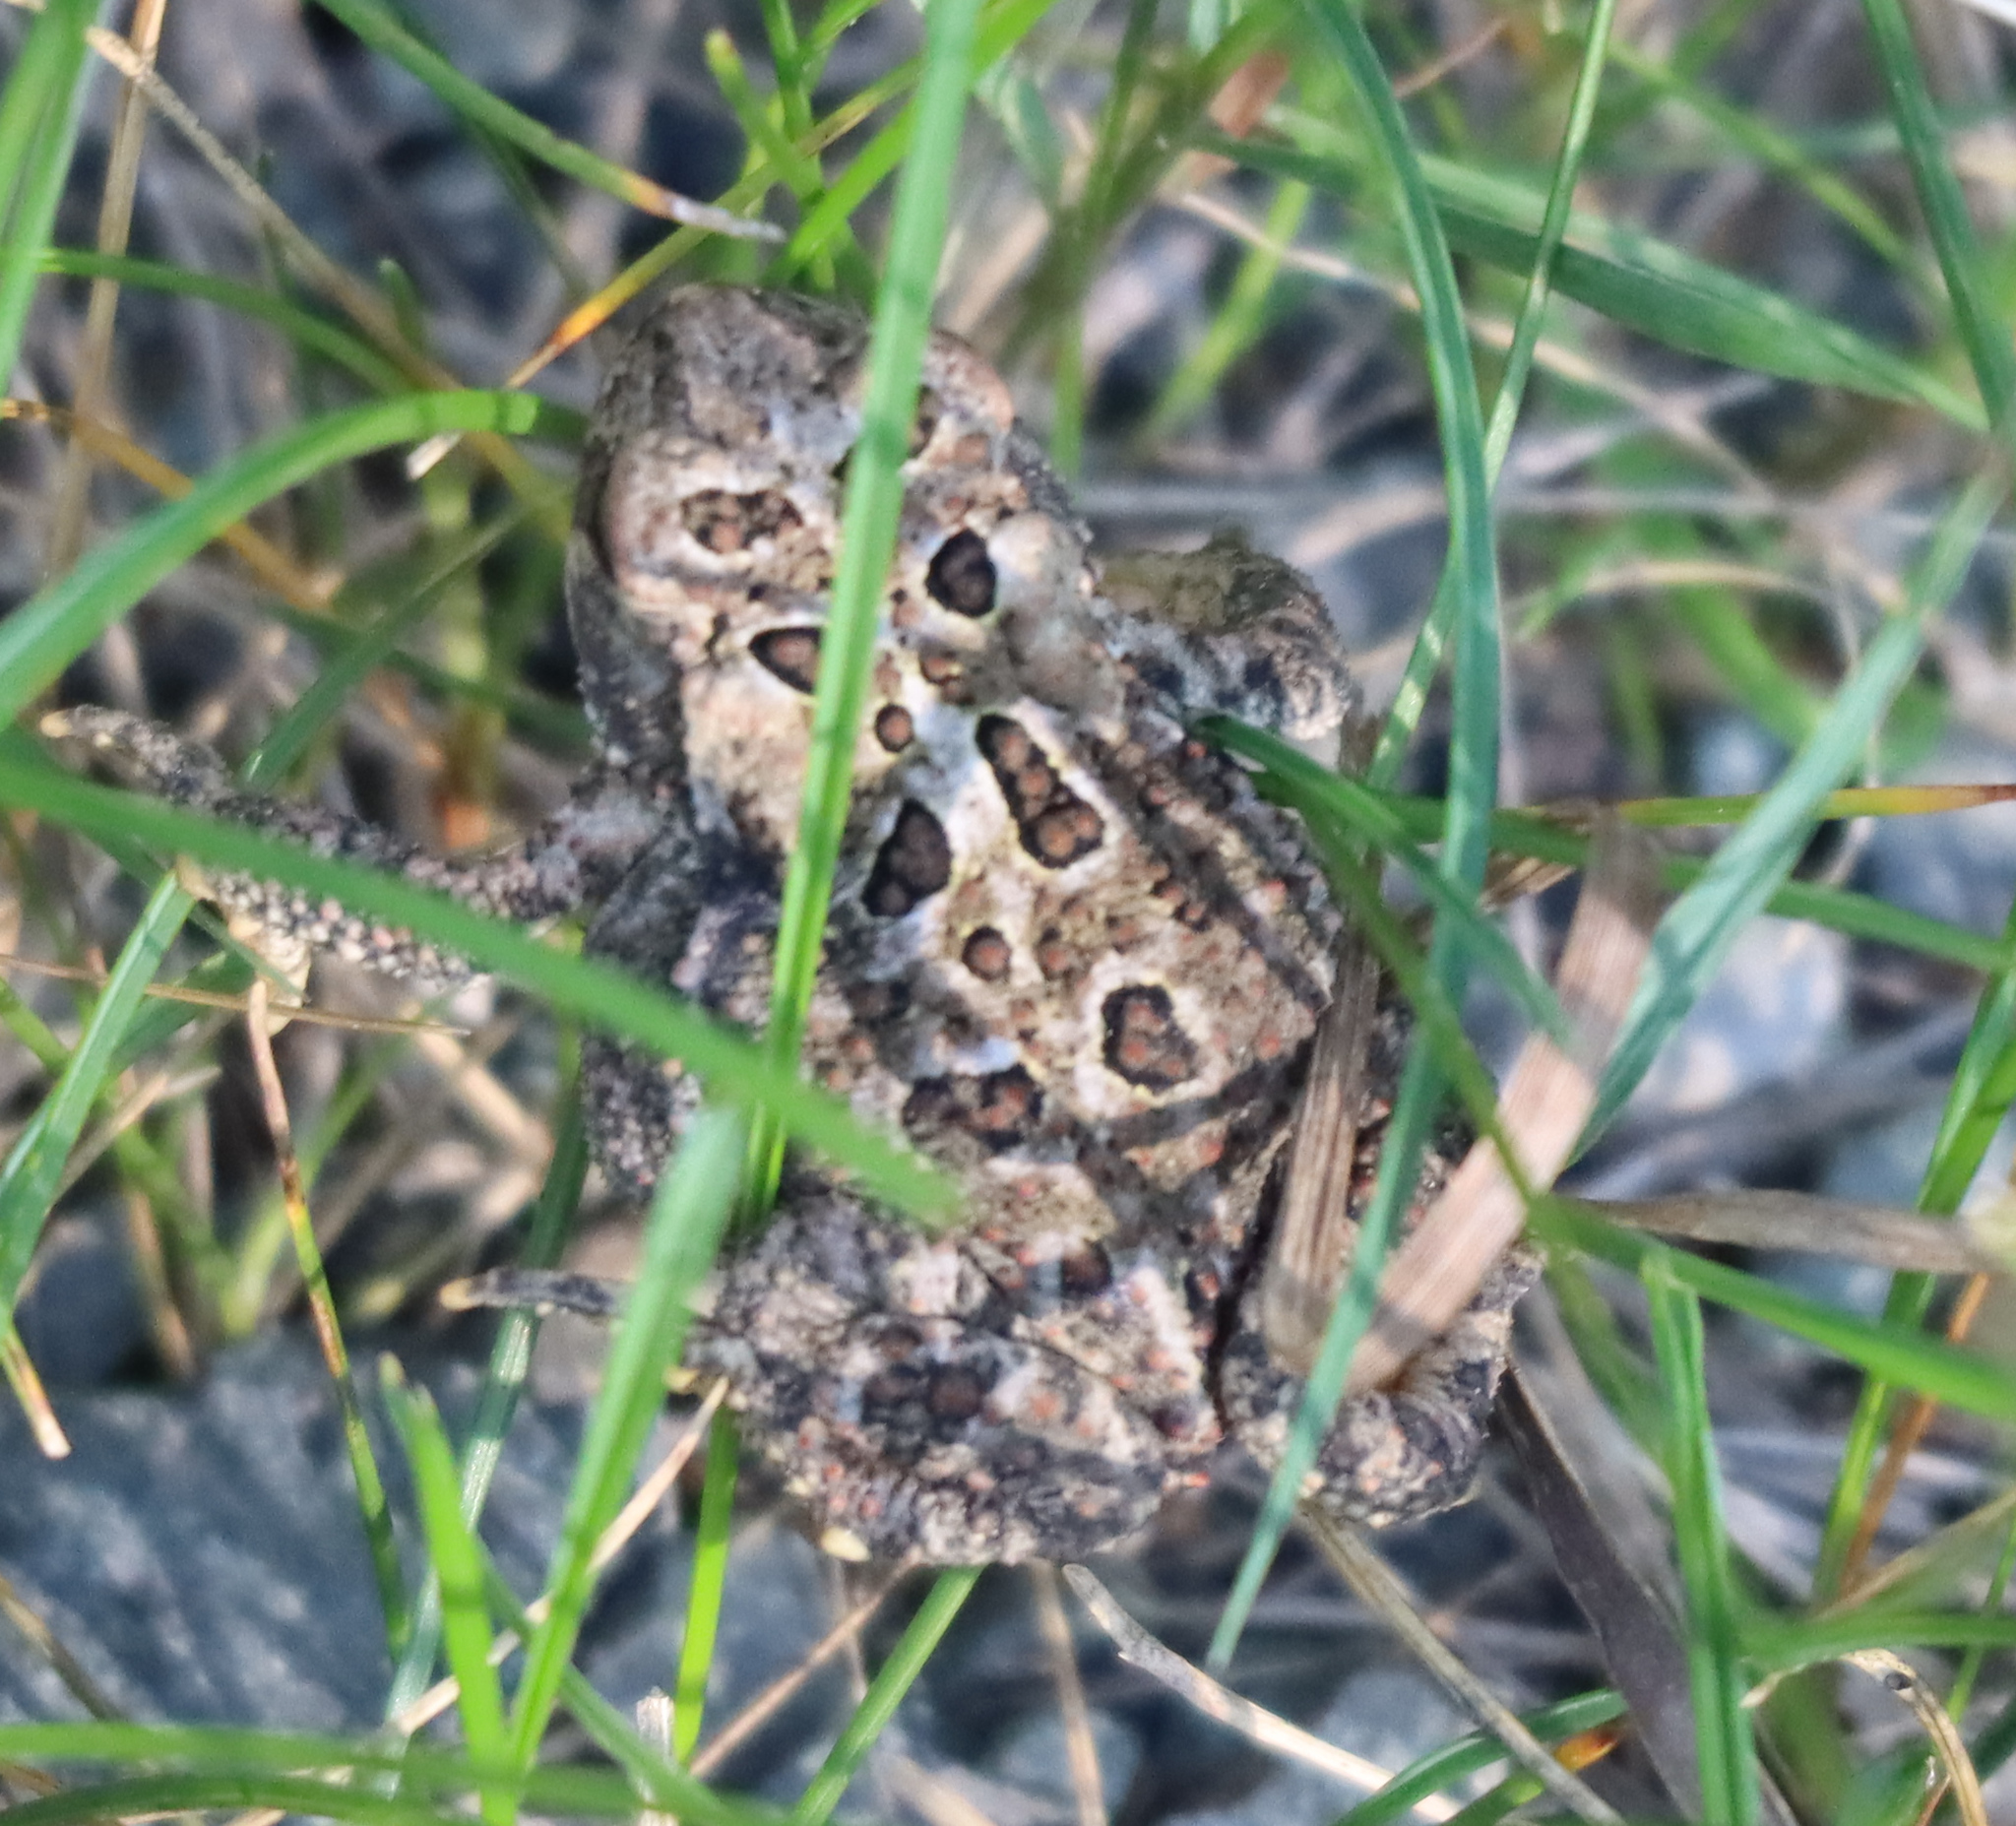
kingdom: Animalia
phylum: Chordata
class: Amphibia
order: Anura
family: Bufonidae
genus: Anaxyrus
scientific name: Anaxyrus americanus
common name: American toad
